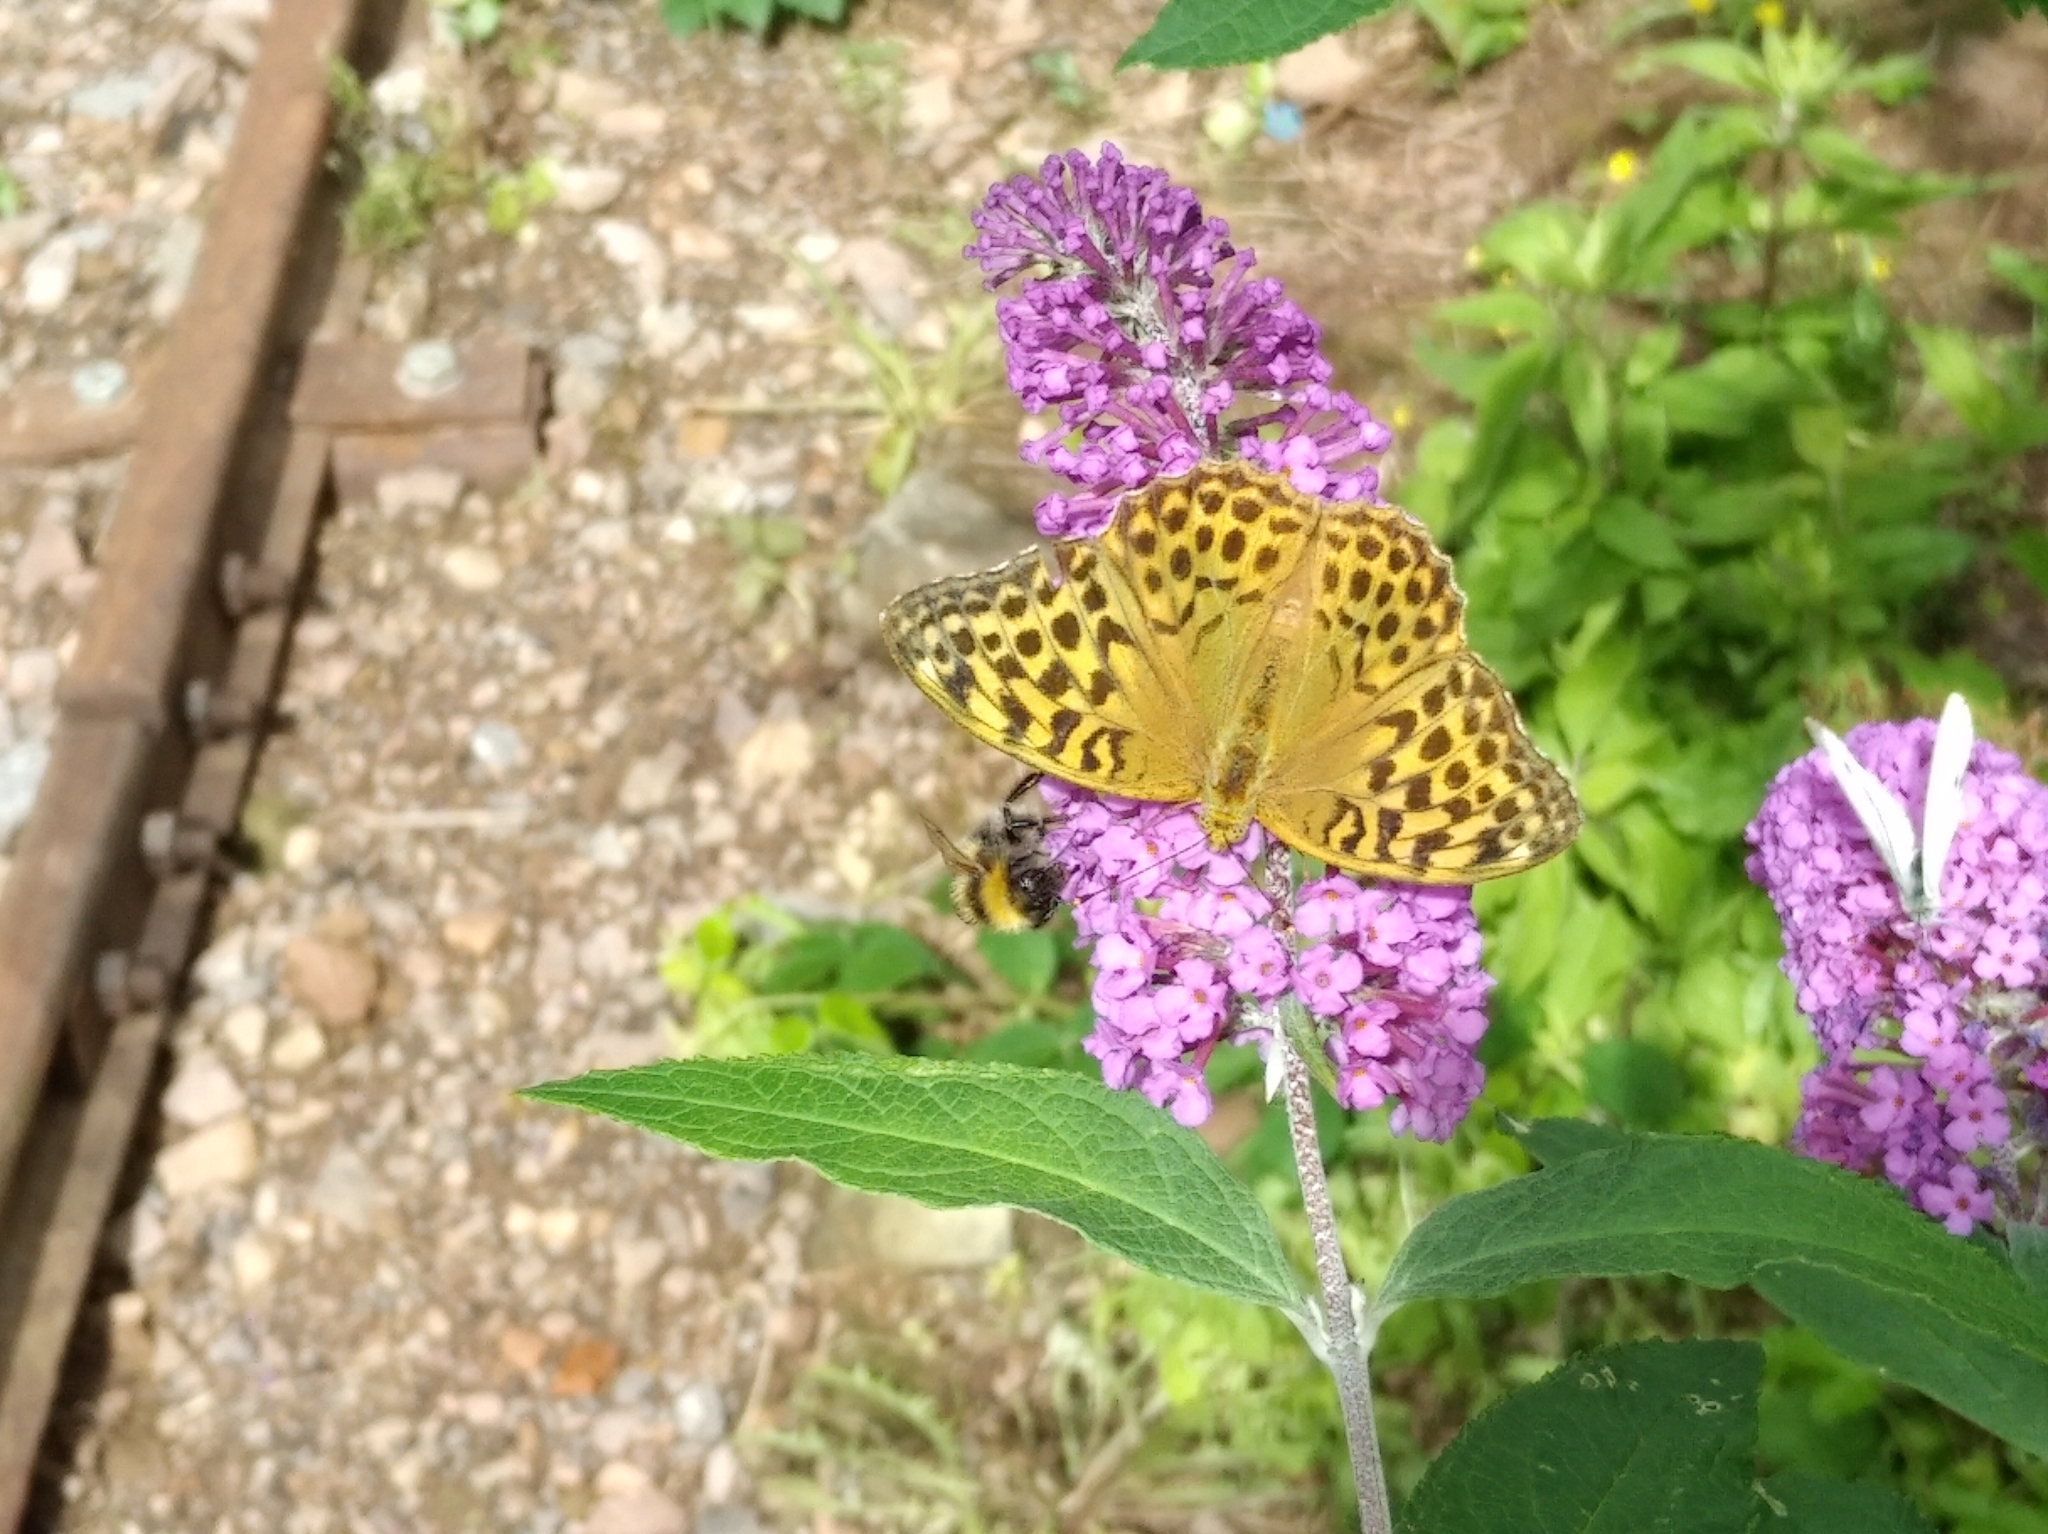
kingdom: Animalia
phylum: Arthropoda
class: Insecta
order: Lepidoptera
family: Nymphalidae
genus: Argynnis
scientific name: Argynnis paphia
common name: Silver-washed fritillary
